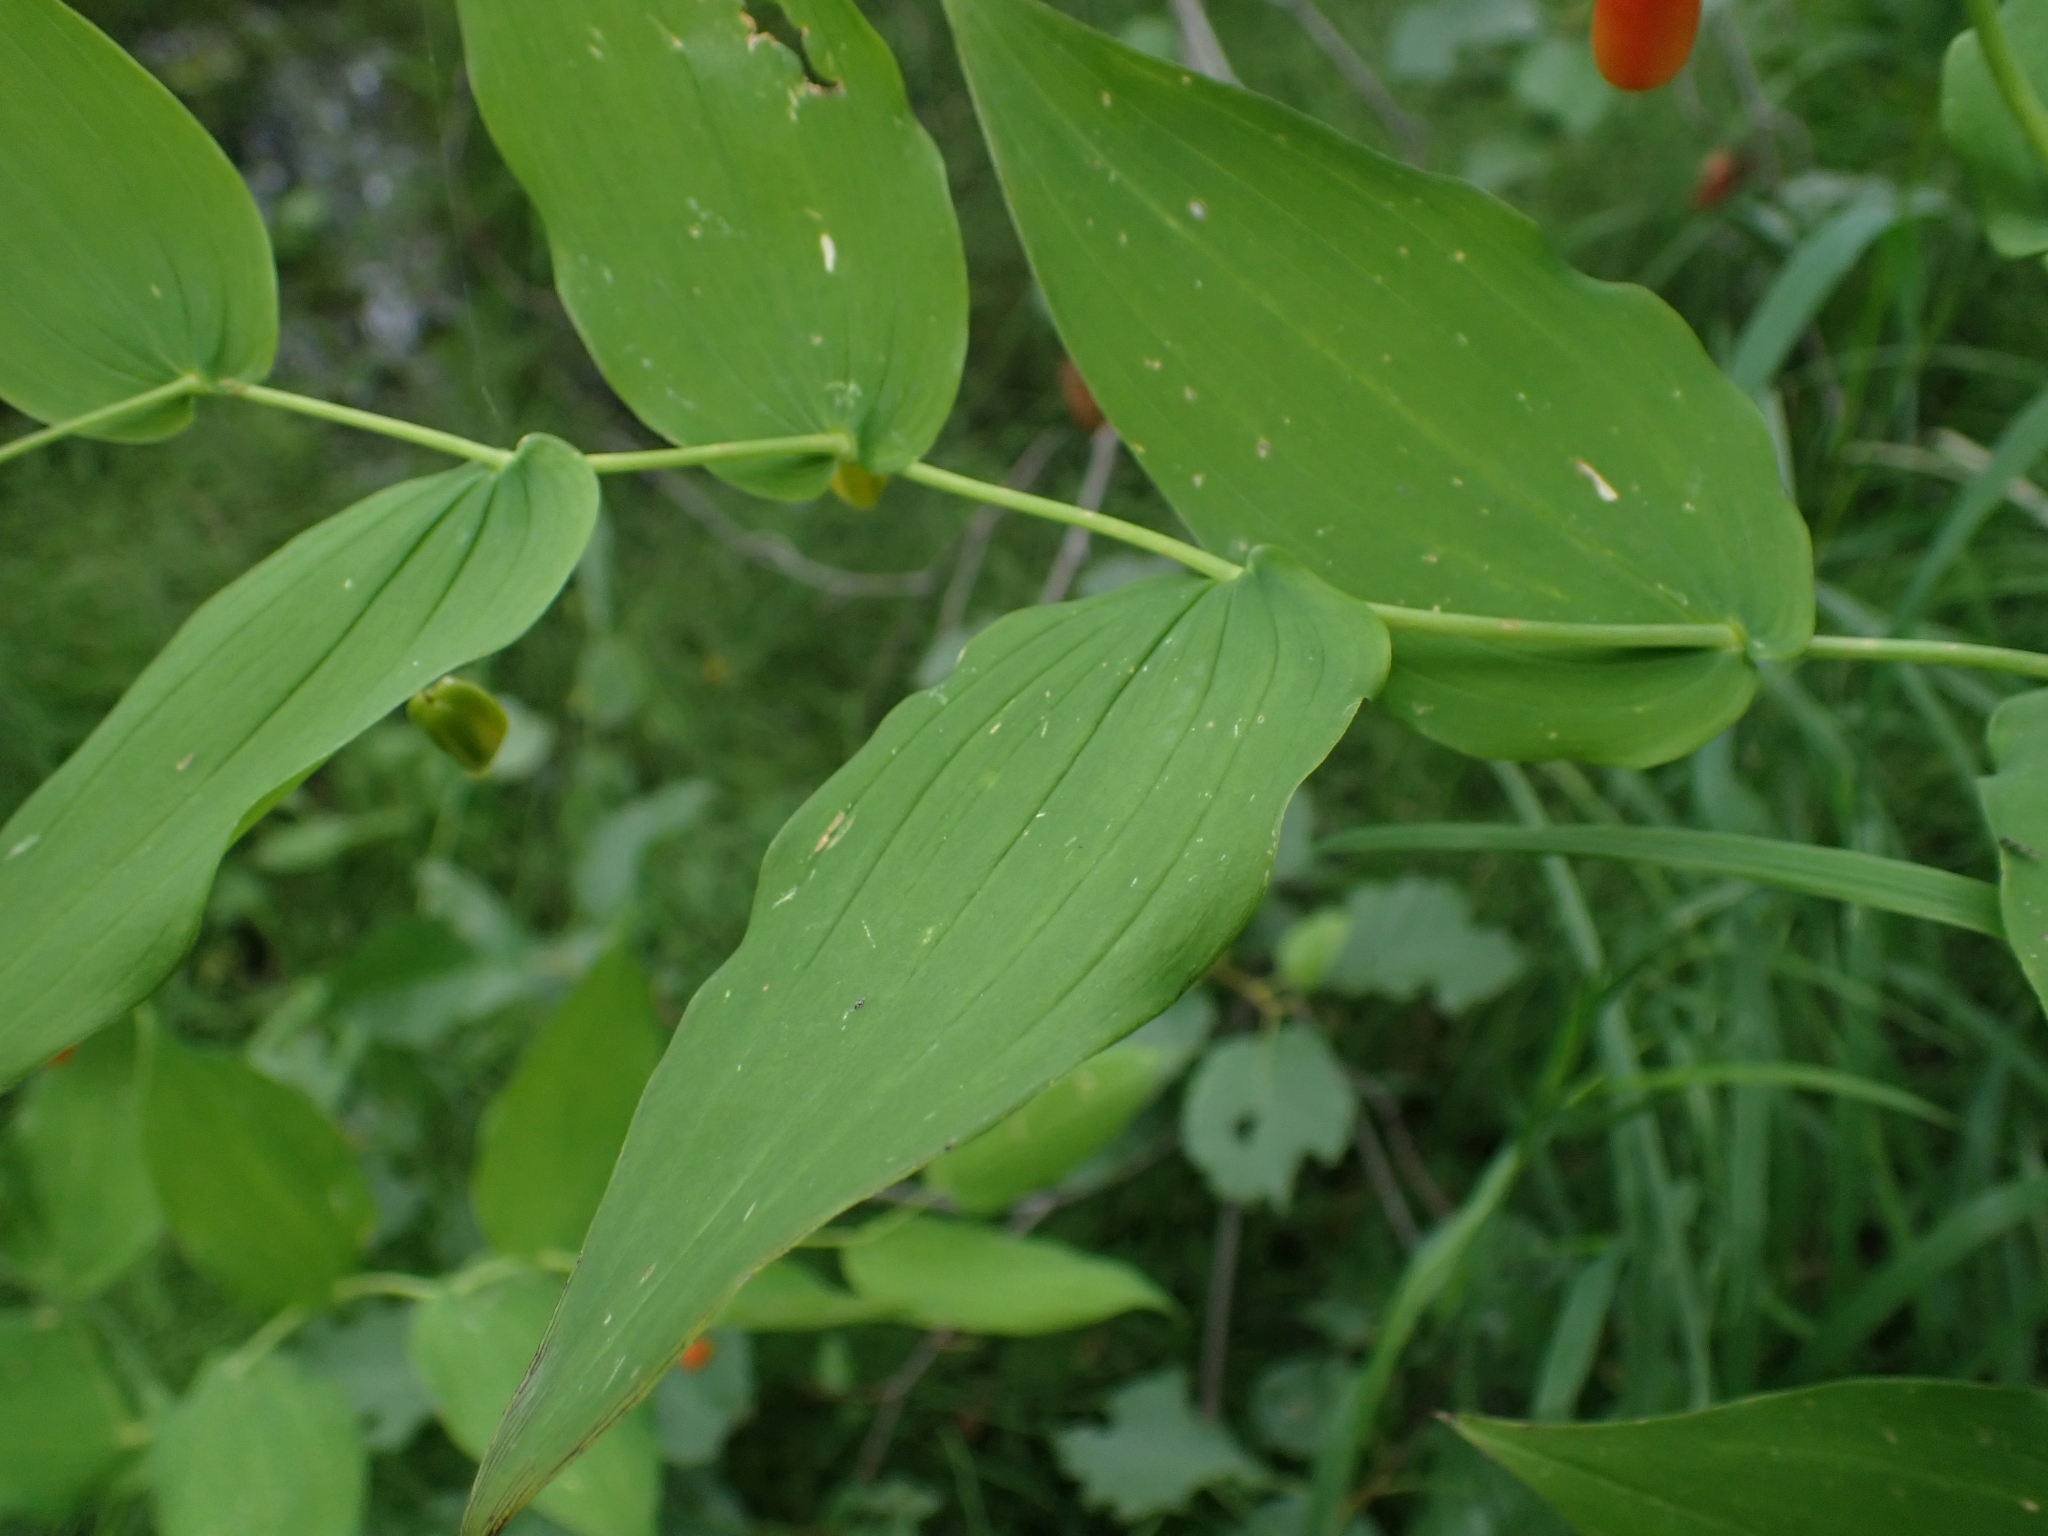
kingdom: Plantae
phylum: Tracheophyta
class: Liliopsida
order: Liliales
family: Liliaceae
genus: Streptopus
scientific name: Streptopus amplexifolius
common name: Clasp twisted stalk
